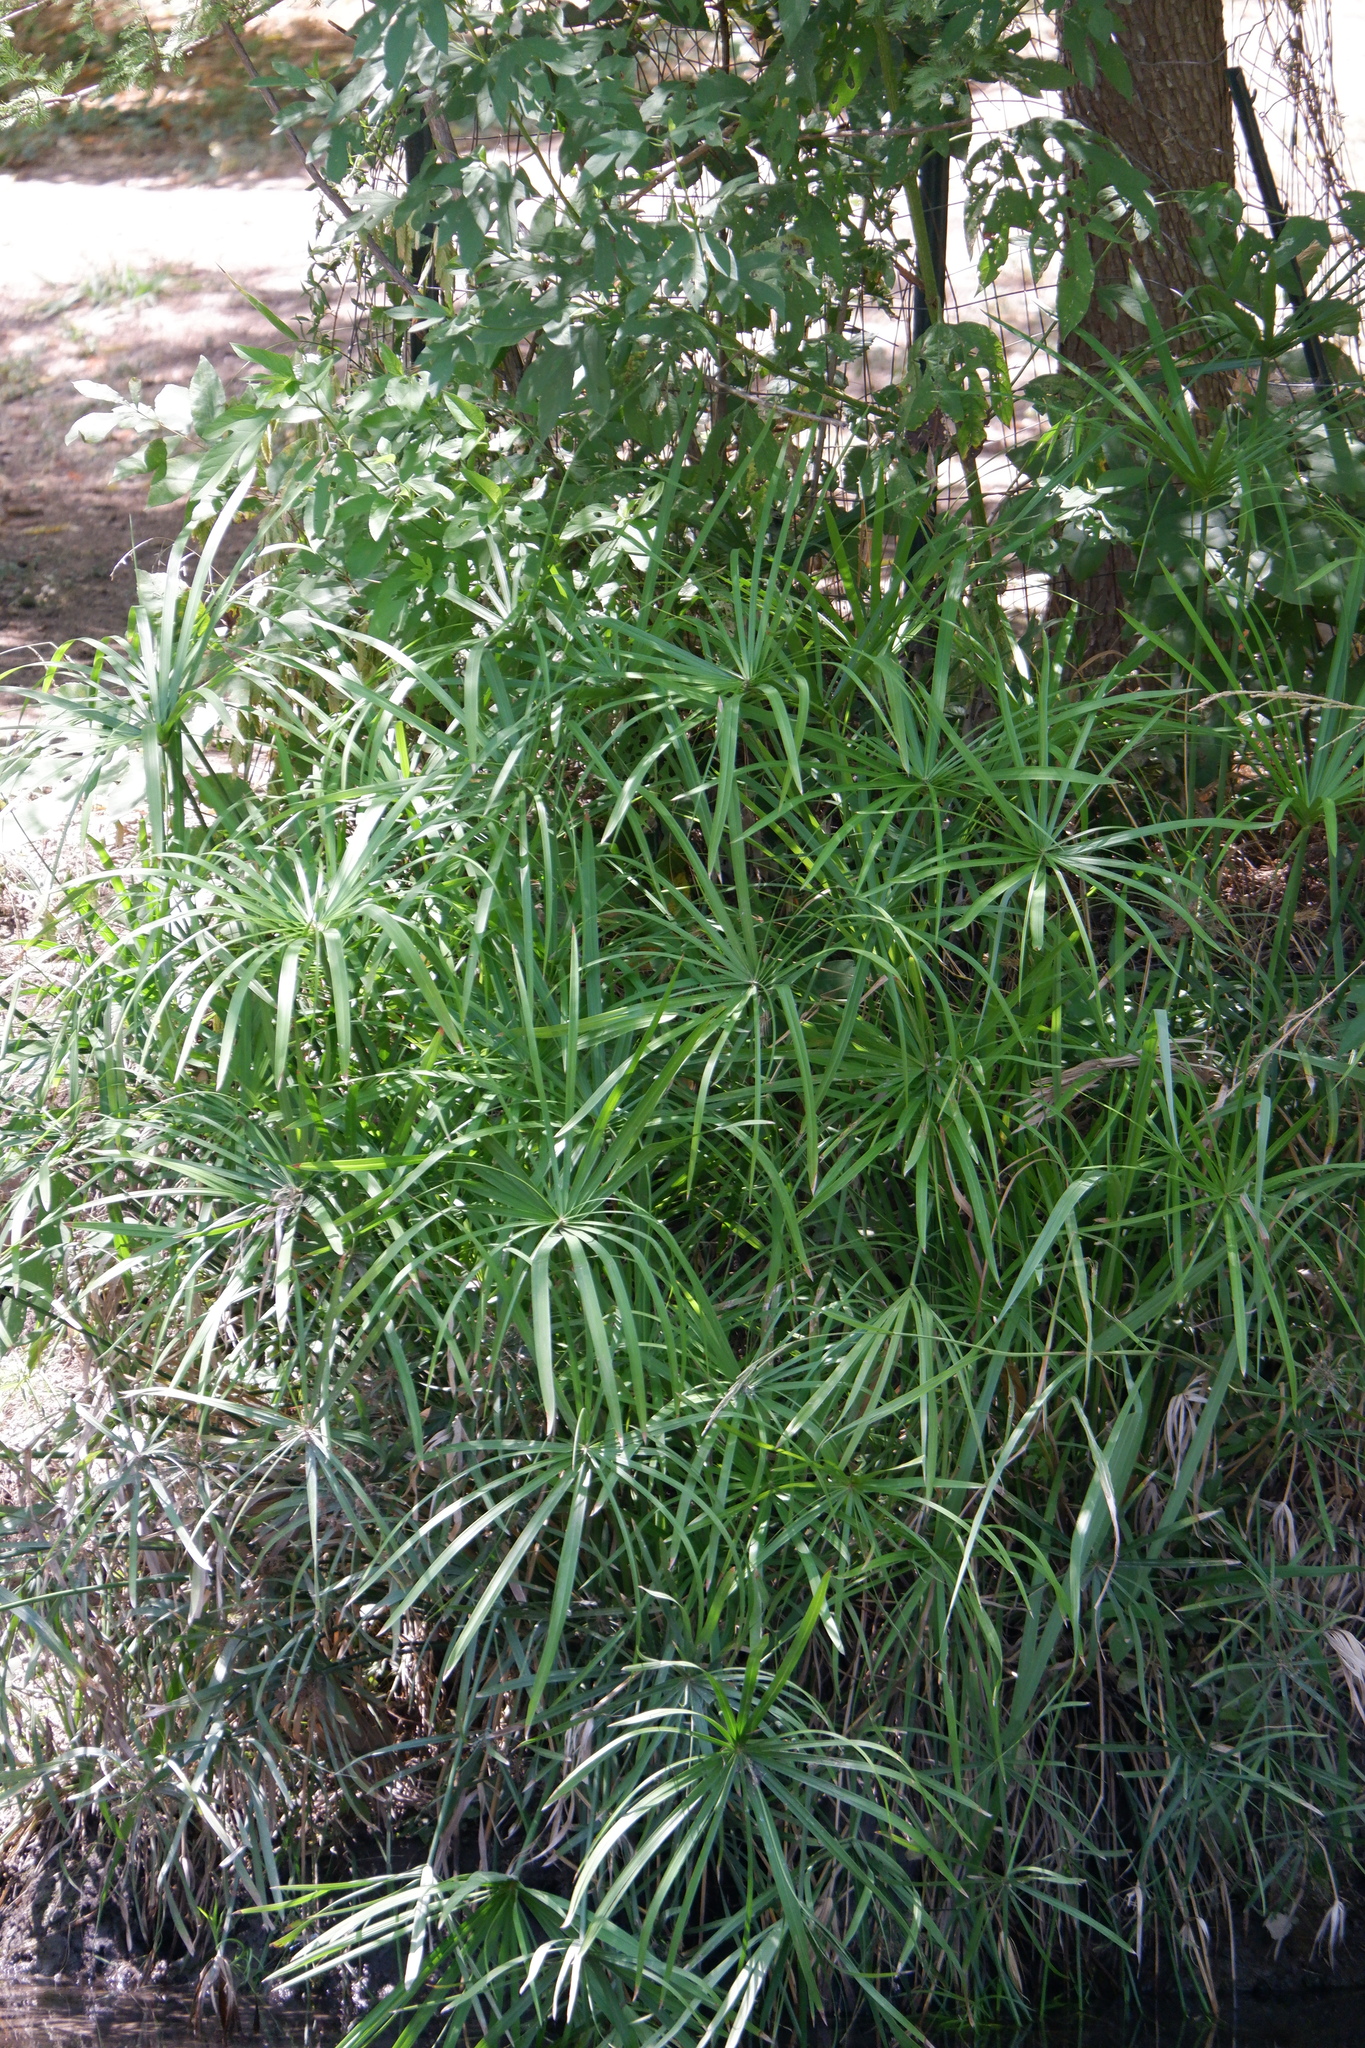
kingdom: Plantae
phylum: Tracheophyta
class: Liliopsida
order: Poales
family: Cyperaceae
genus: Cyperus
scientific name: Cyperus alternifolius
